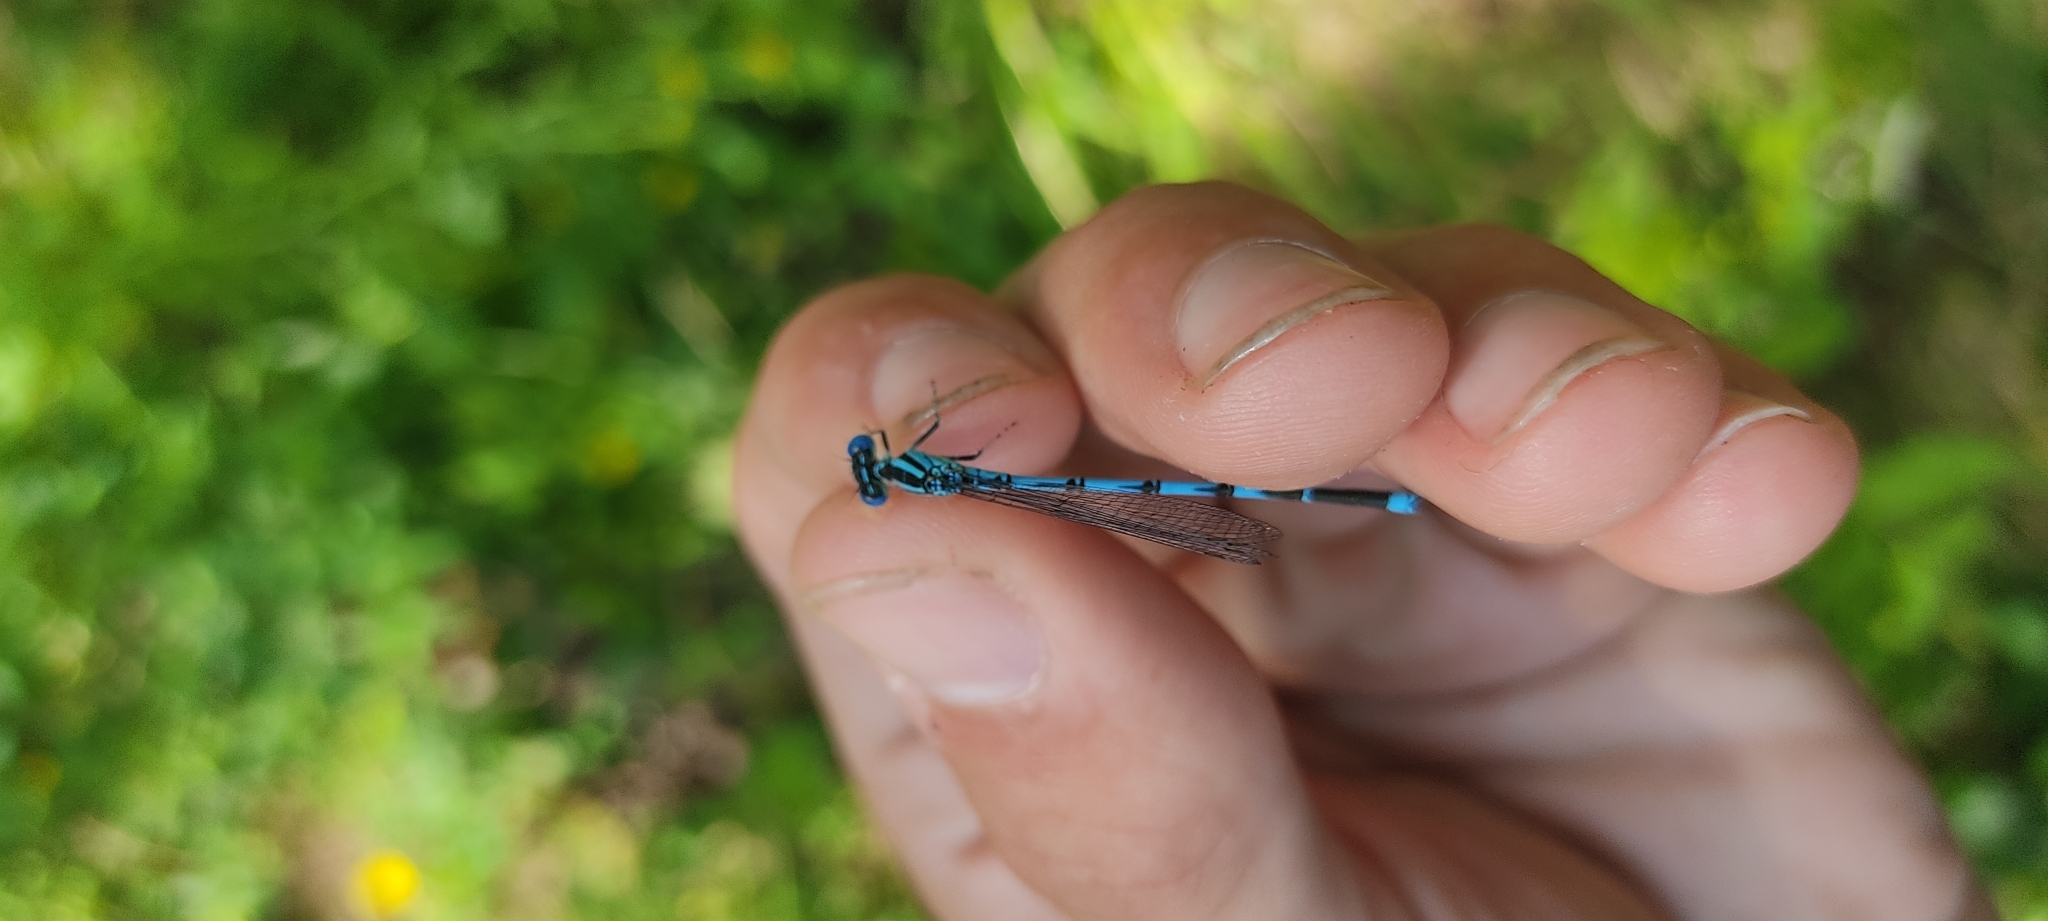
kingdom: Animalia
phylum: Arthropoda
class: Insecta
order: Odonata
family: Coenagrionidae
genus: Erythromma
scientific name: Erythromma lindenii
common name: Blue-eye
